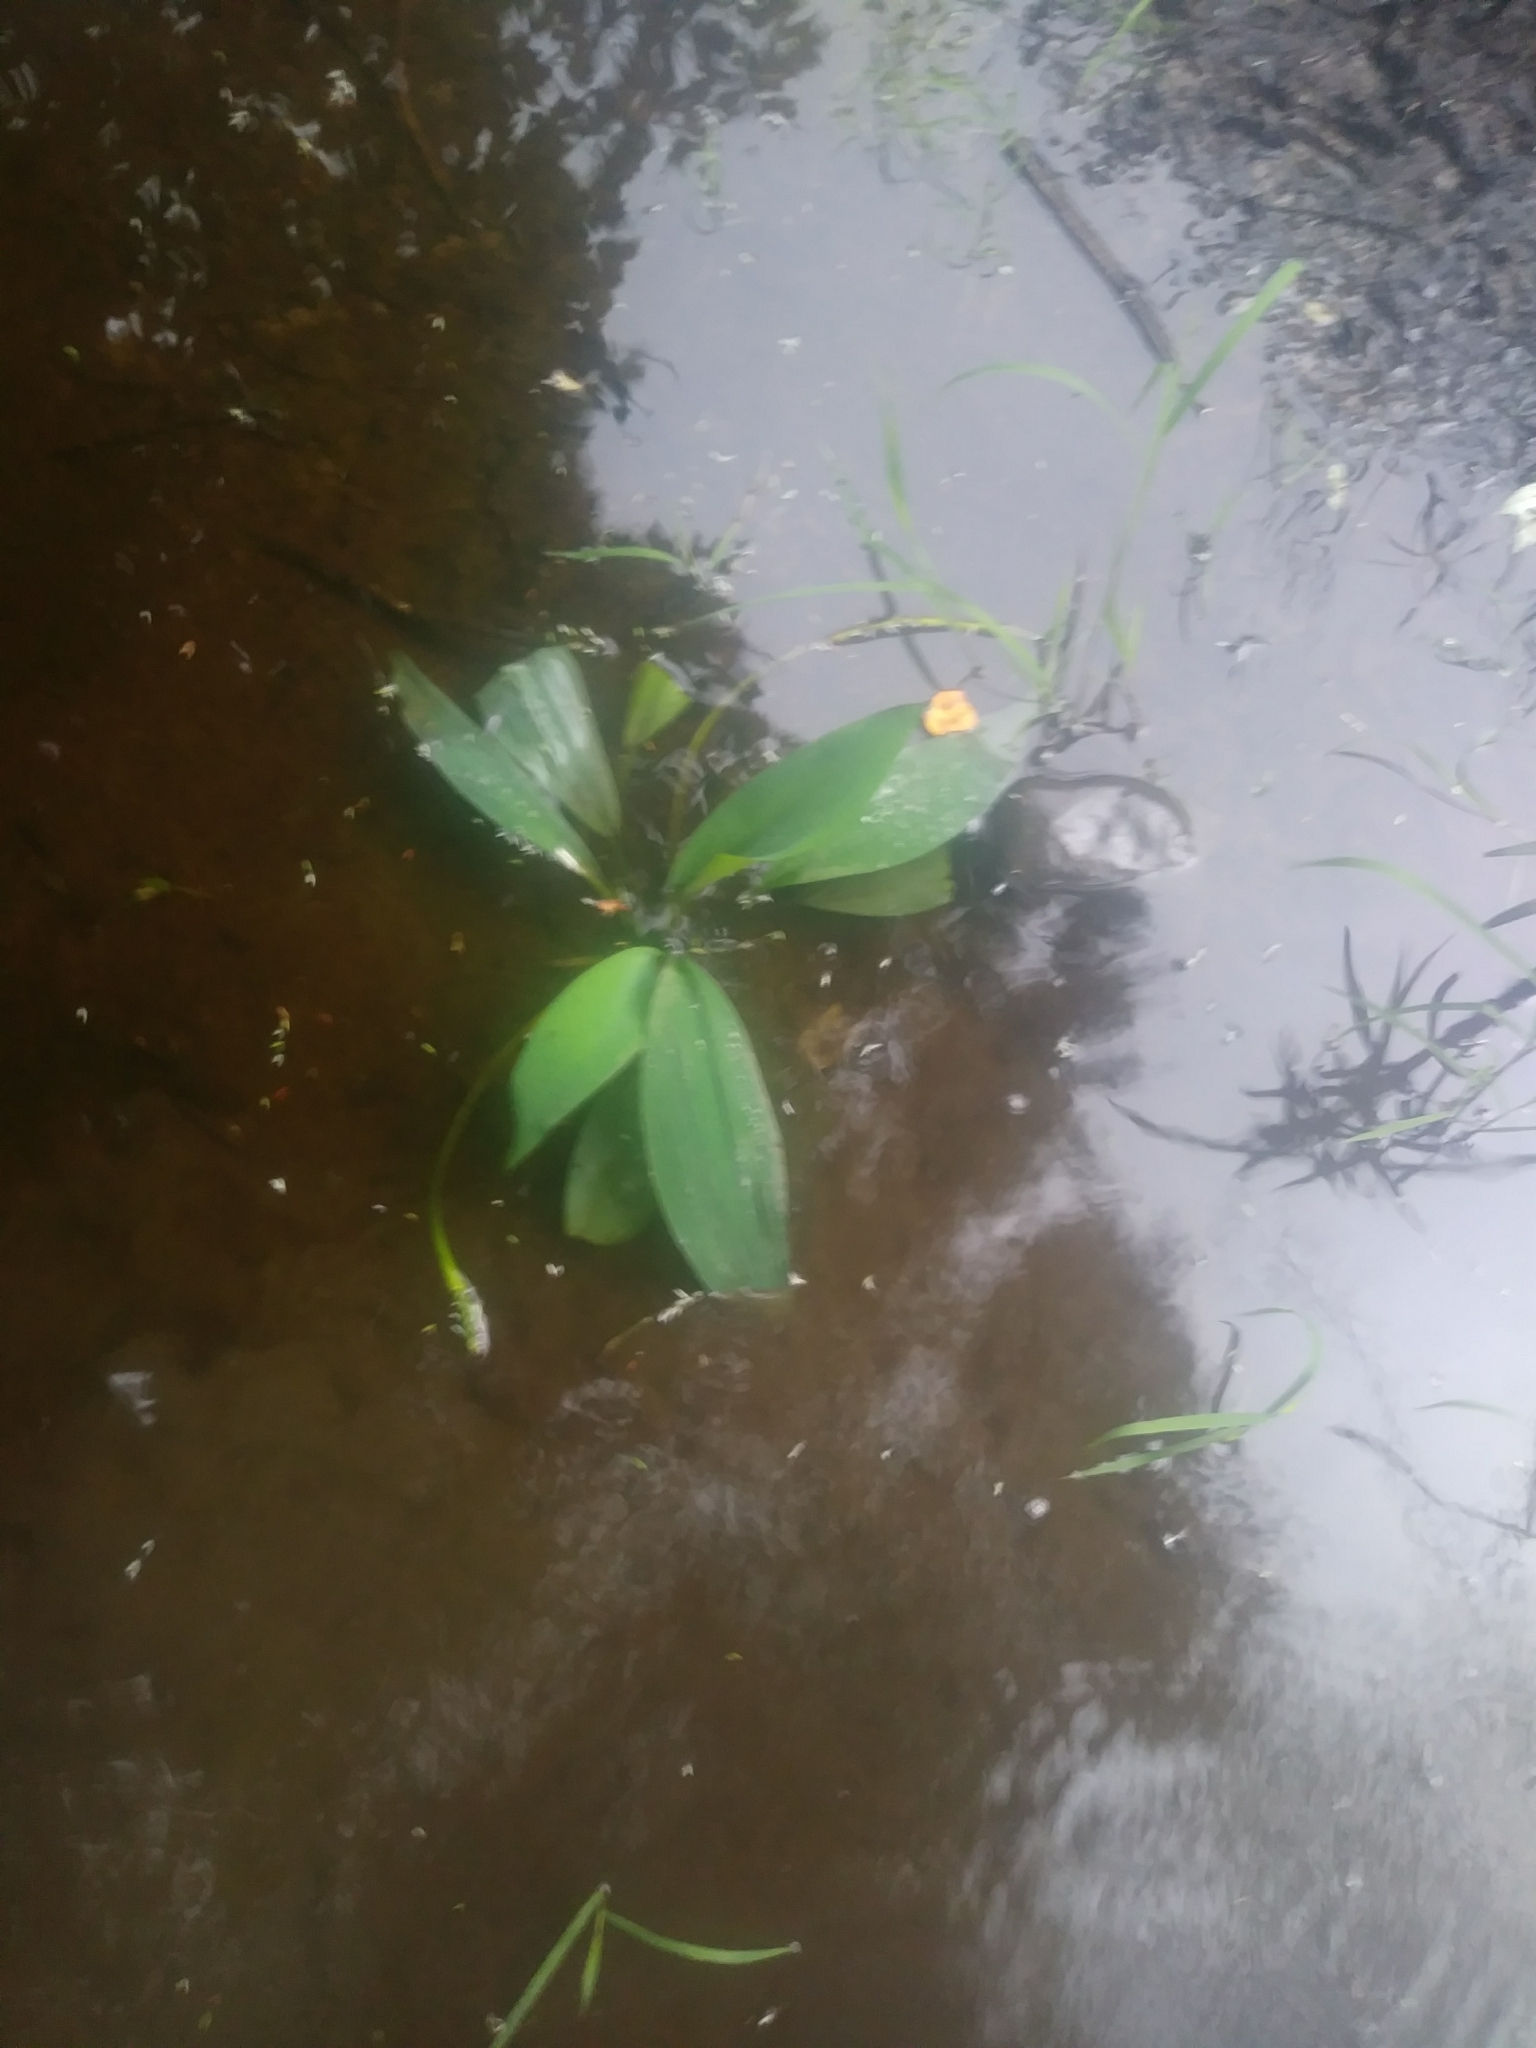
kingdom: Plantae
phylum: Tracheophyta
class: Liliopsida
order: Alismatales
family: Araceae
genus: Orontium
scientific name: Orontium aquaticum
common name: Golden-club
